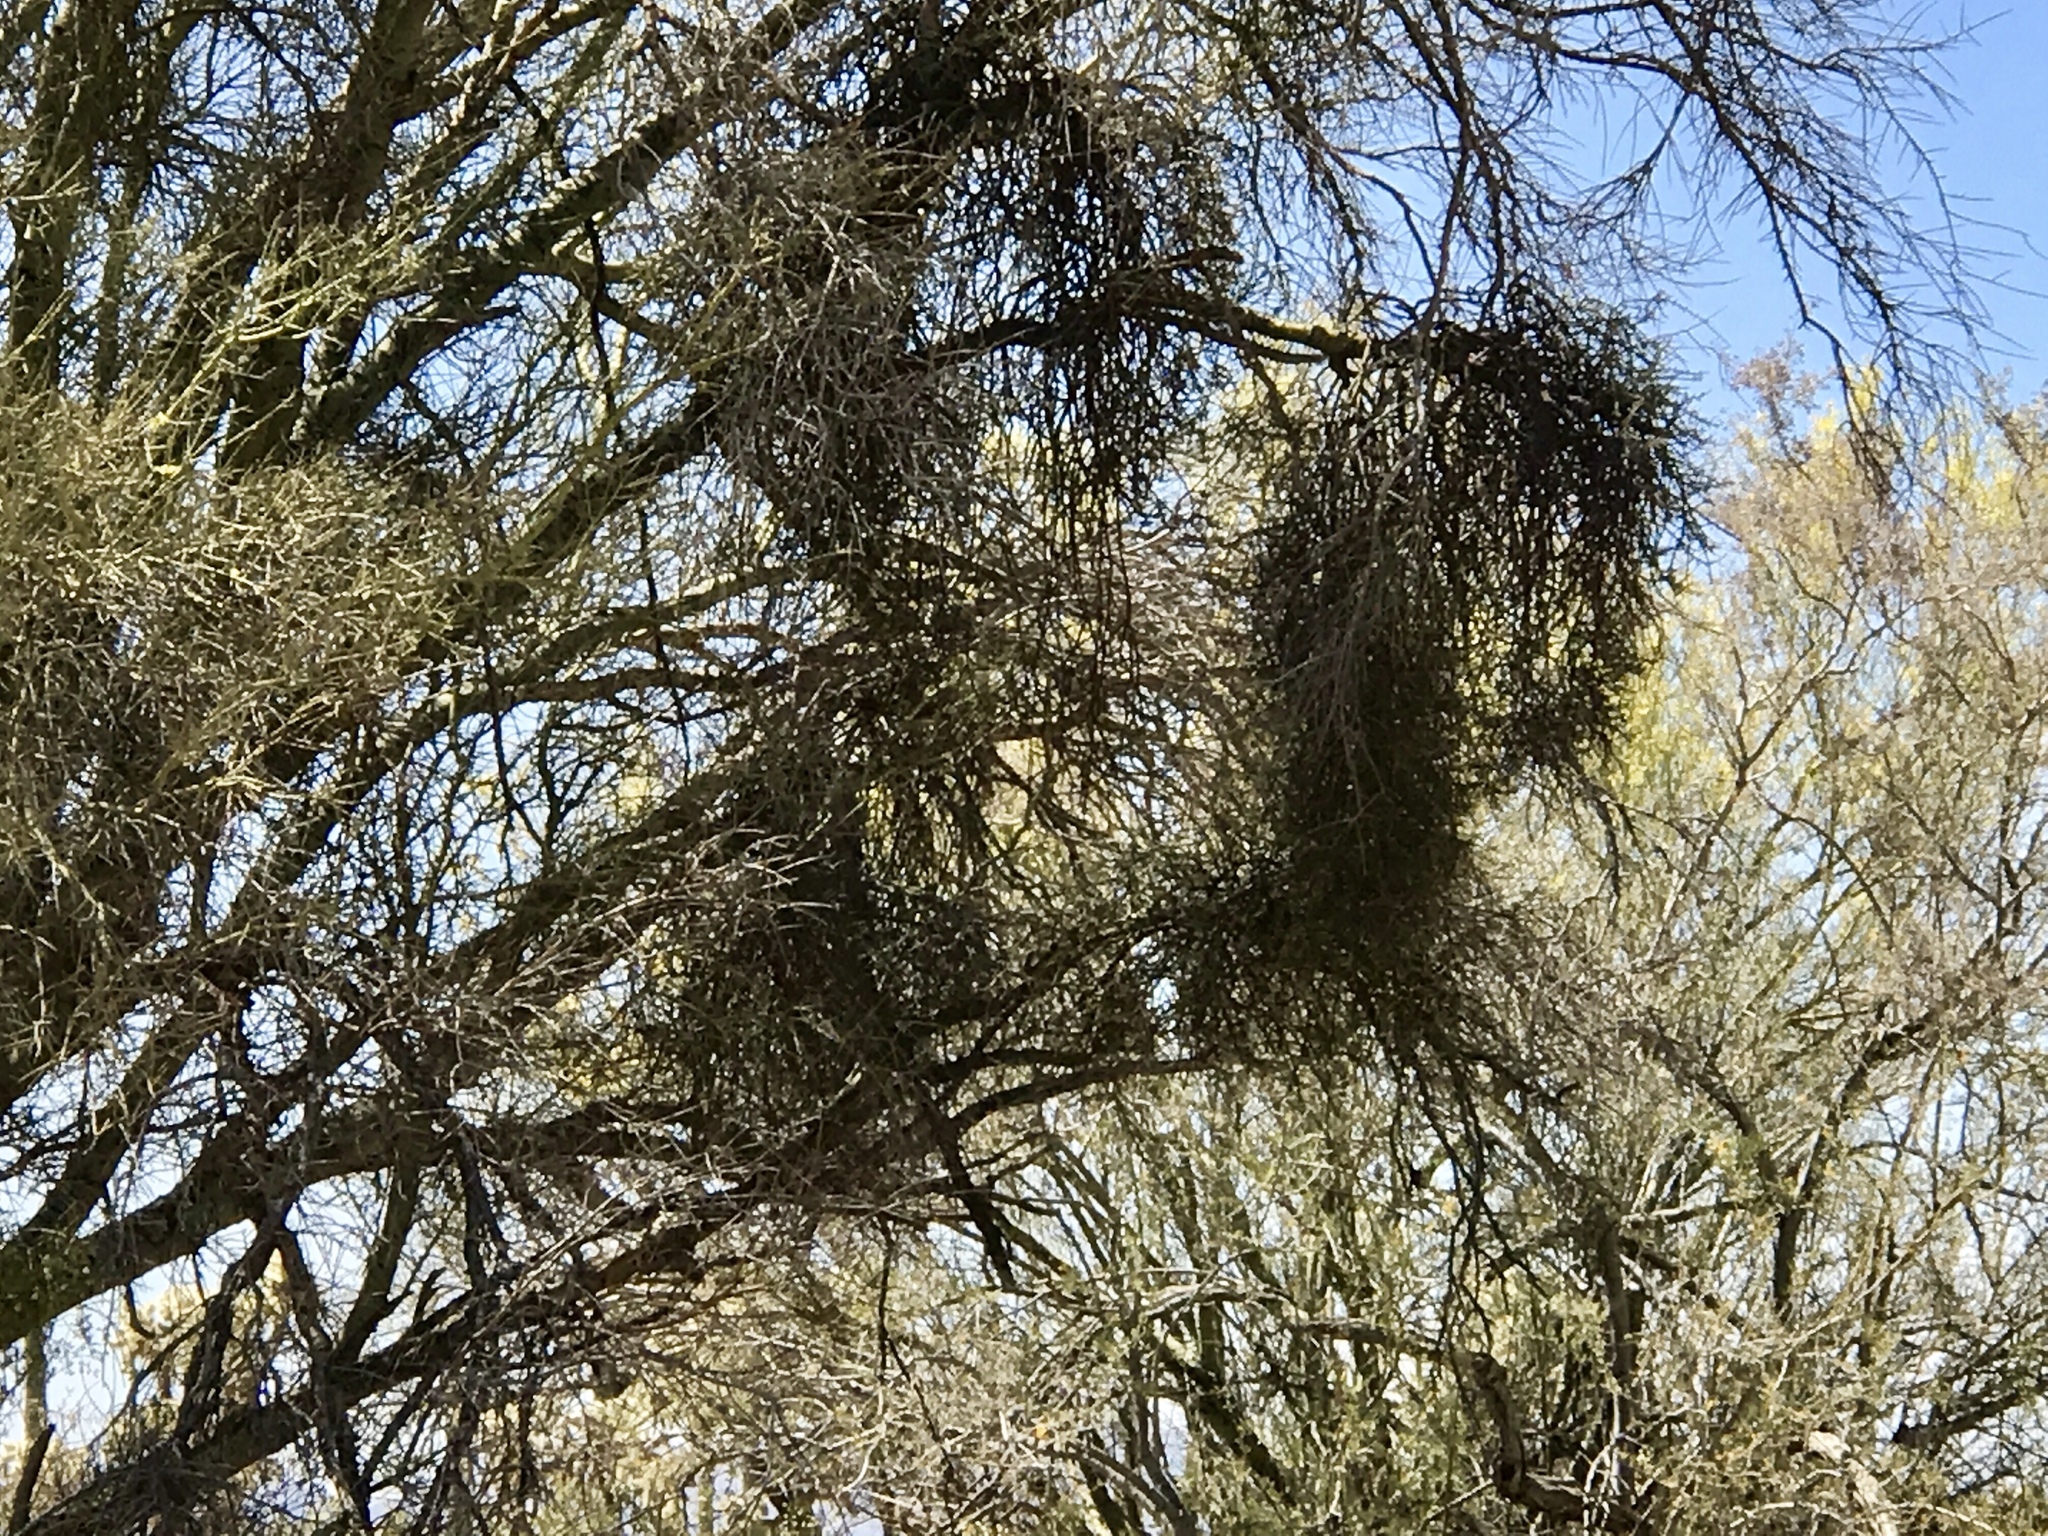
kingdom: Plantae
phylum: Tracheophyta
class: Magnoliopsida
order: Santalales
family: Viscaceae
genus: Phoradendron
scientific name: Phoradendron californicum
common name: Acacia mistletoe
